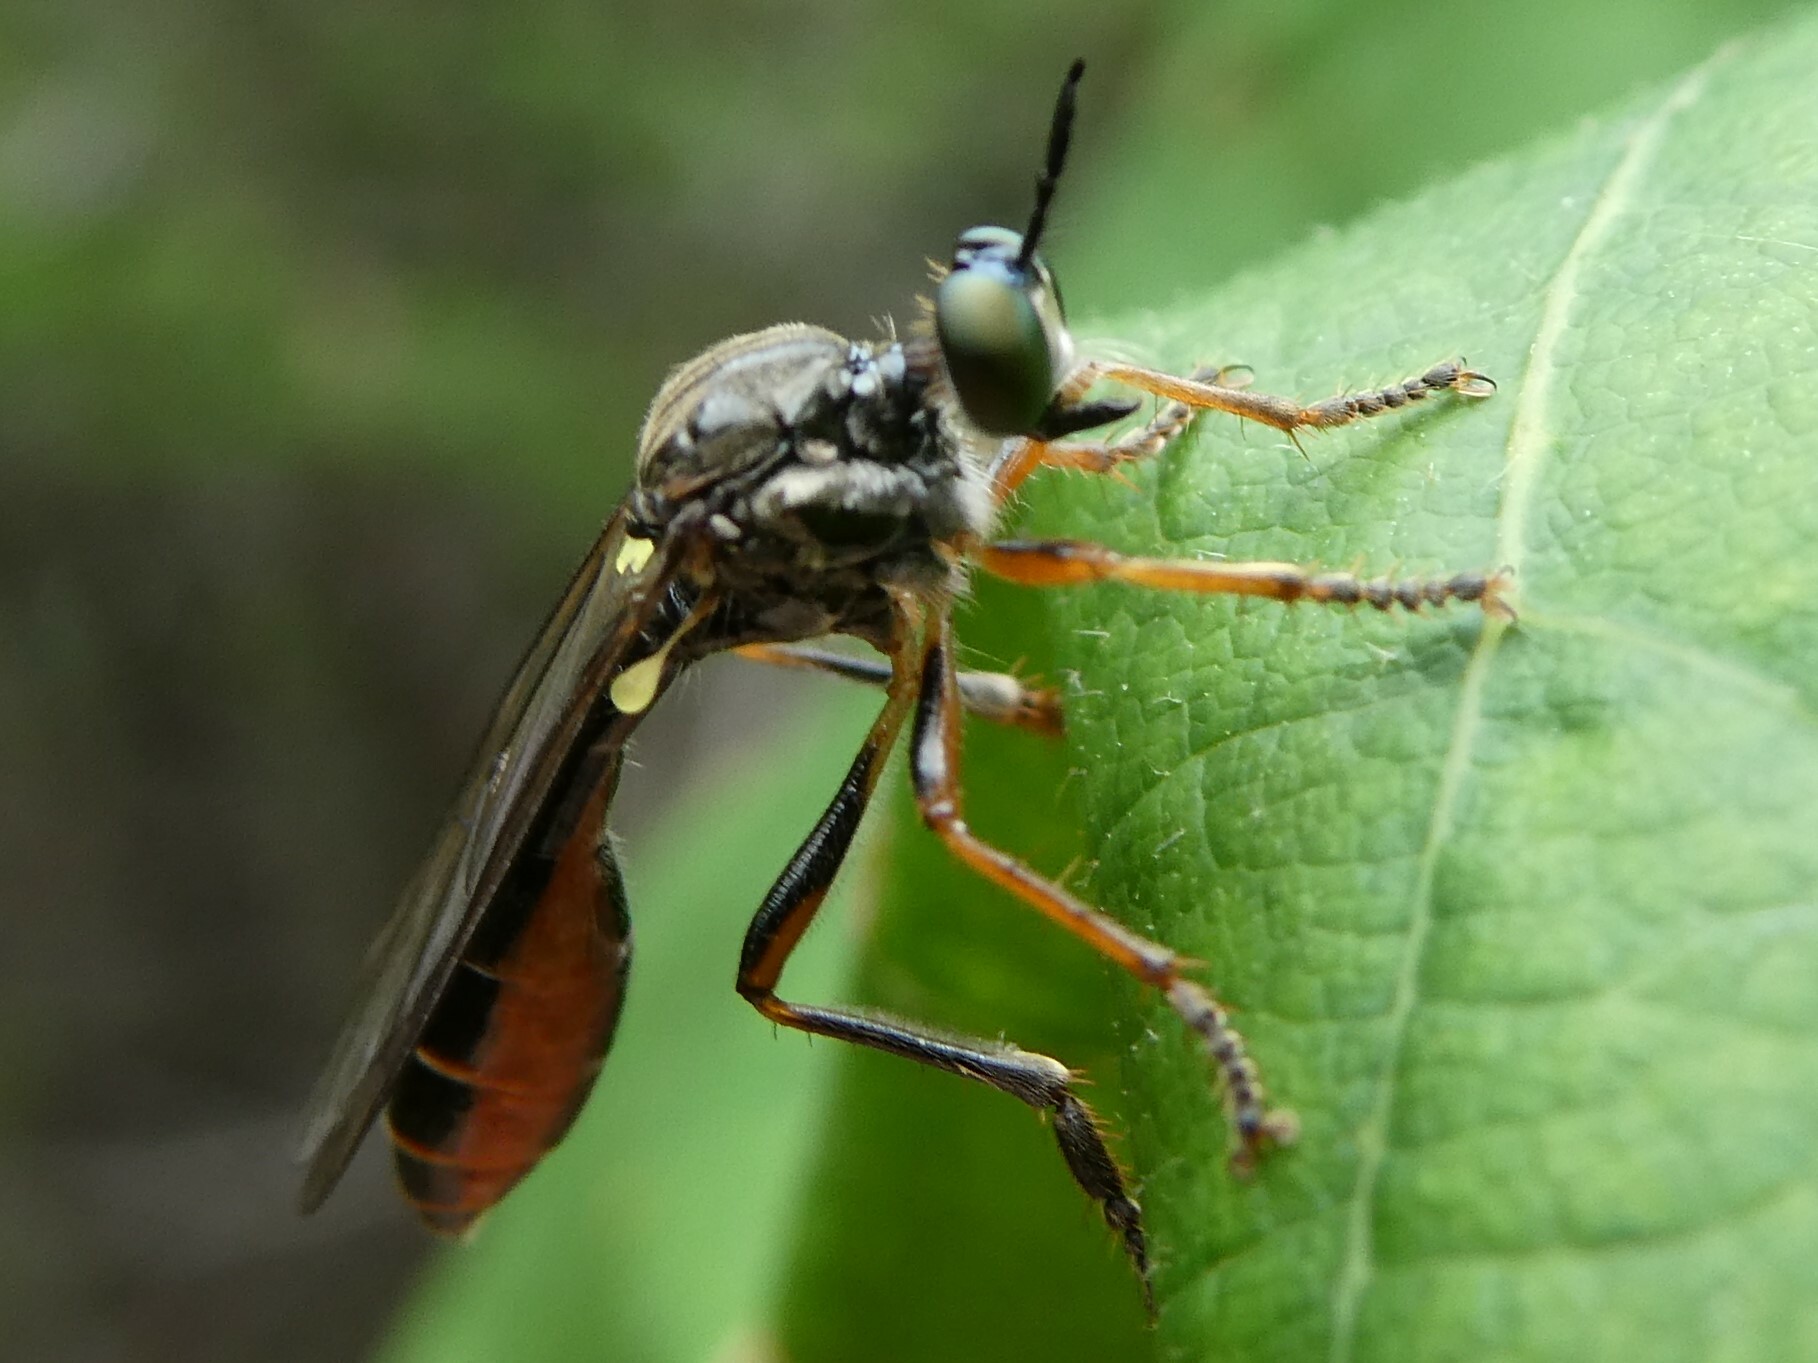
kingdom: Animalia
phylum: Arthropoda
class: Insecta
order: Diptera
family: Asilidae
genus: Dioctria
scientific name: Dioctria hyalipennis
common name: Stripe-legged robberfly
